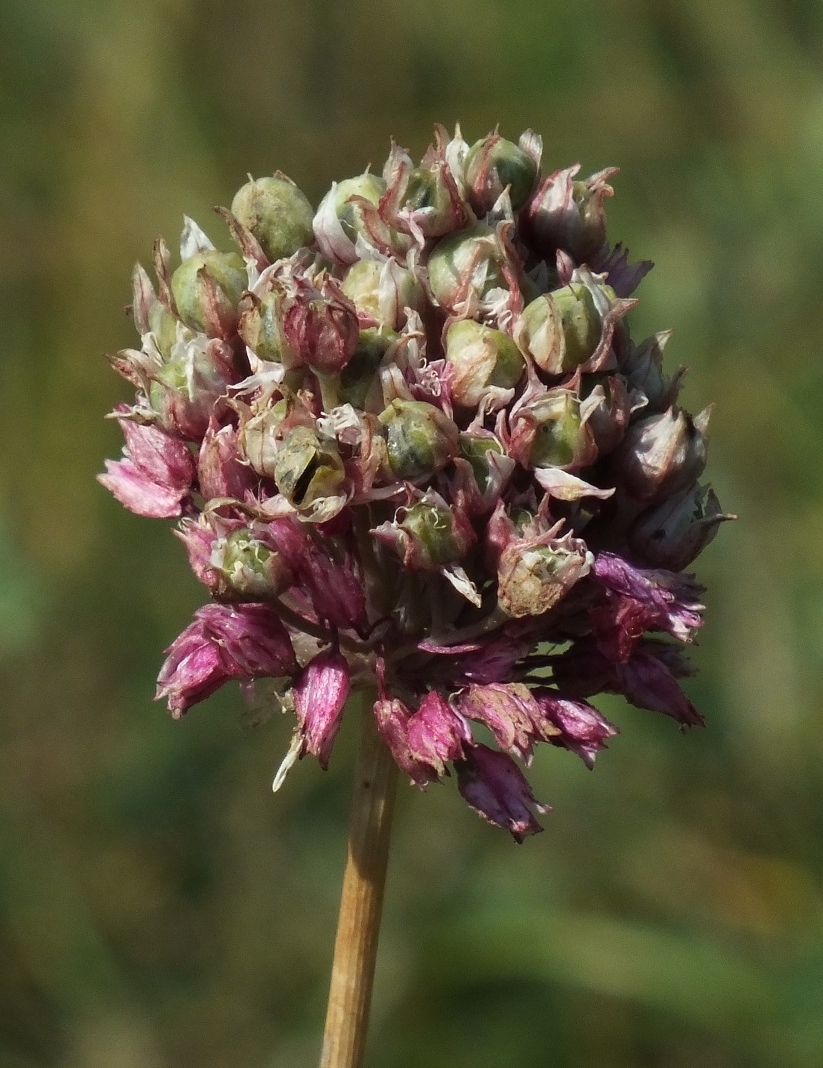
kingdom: Plantae
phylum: Tracheophyta
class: Liliopsida
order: Asparagales
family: Amaryllidaceae
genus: Allium
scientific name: Allium rotundum
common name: Sand leek
